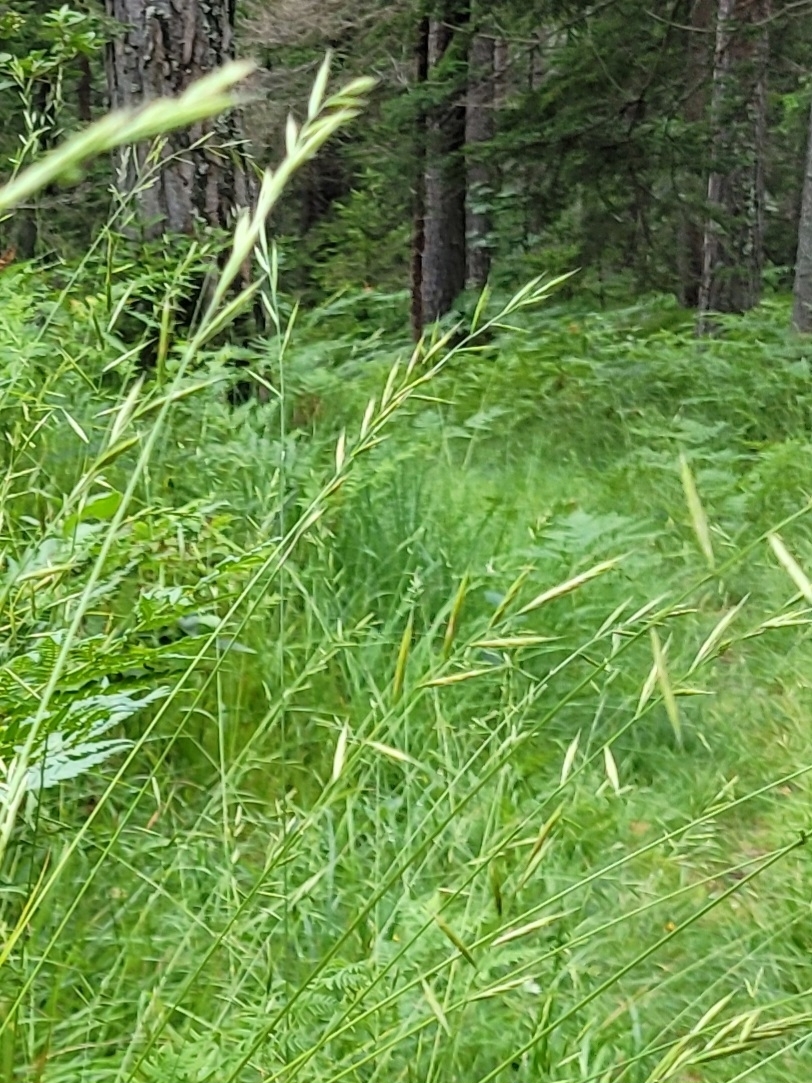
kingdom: Plantae
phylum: Tracheophyta
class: Liliopsida
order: Poales
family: Poaceae
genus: Brachypodium
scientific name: Brachypodium pinnatum
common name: Tor grass
